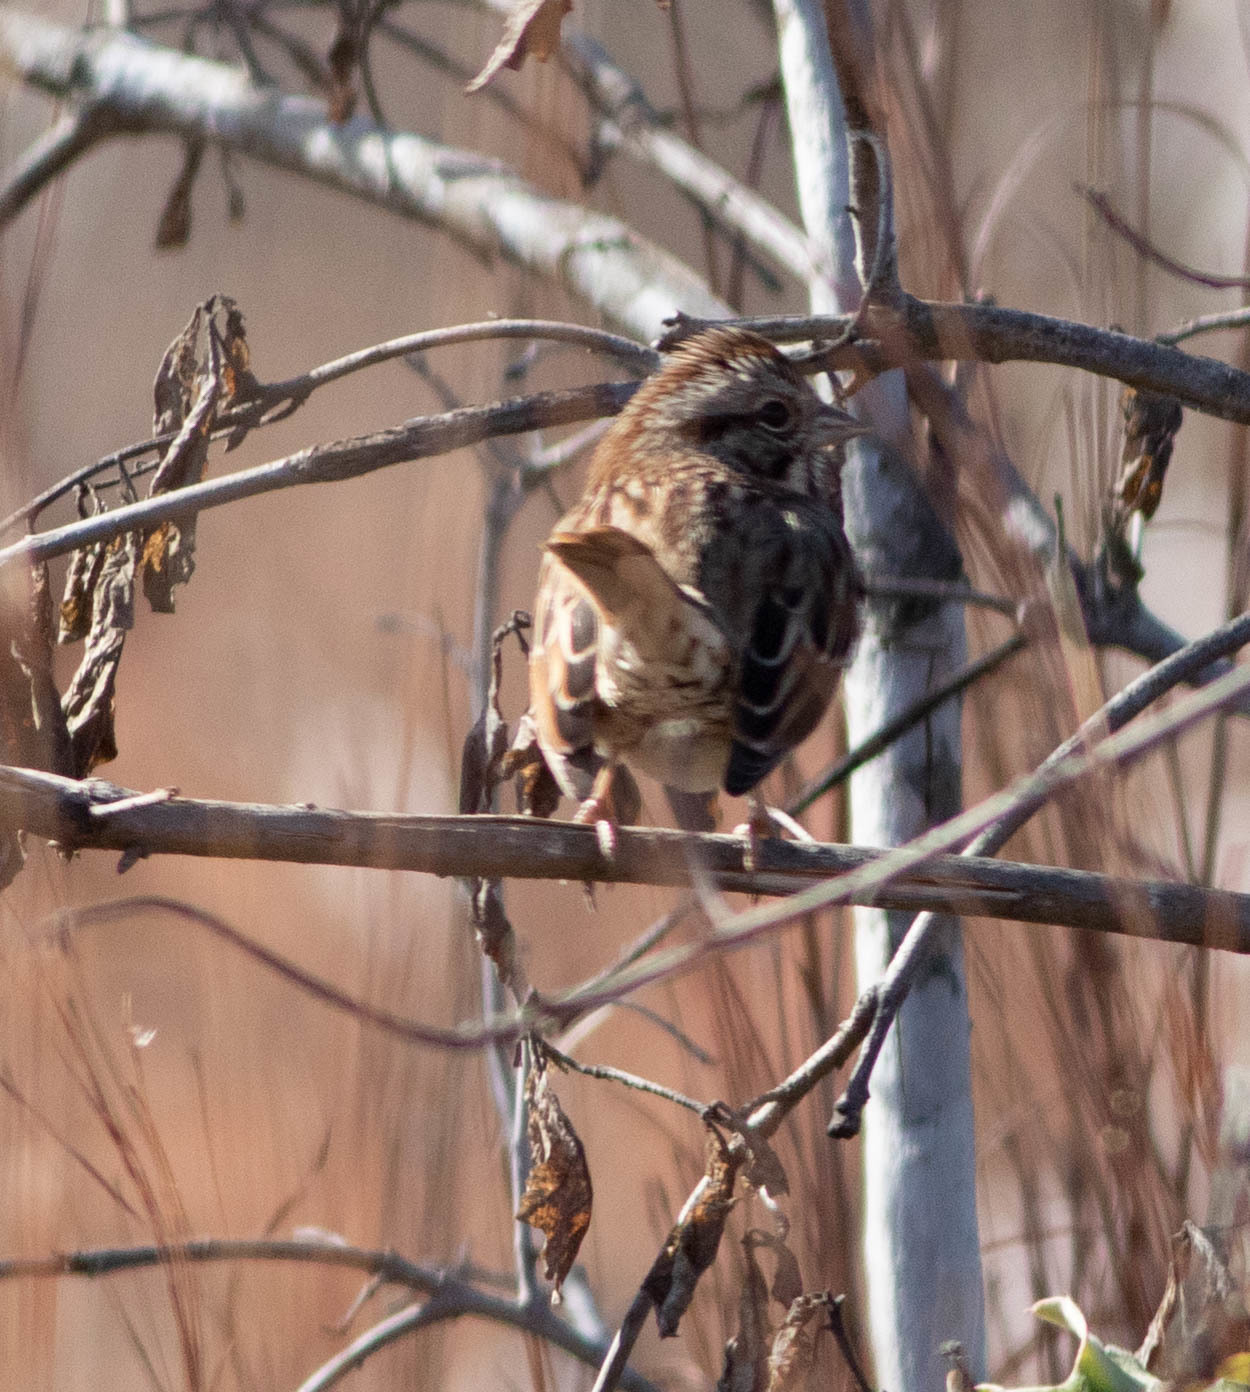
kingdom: Animalia
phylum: Chordata
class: Aves
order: Passeriformes
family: Passerellidae
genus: Melospiza
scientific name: Melospiza melodia
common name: Song sparrow
